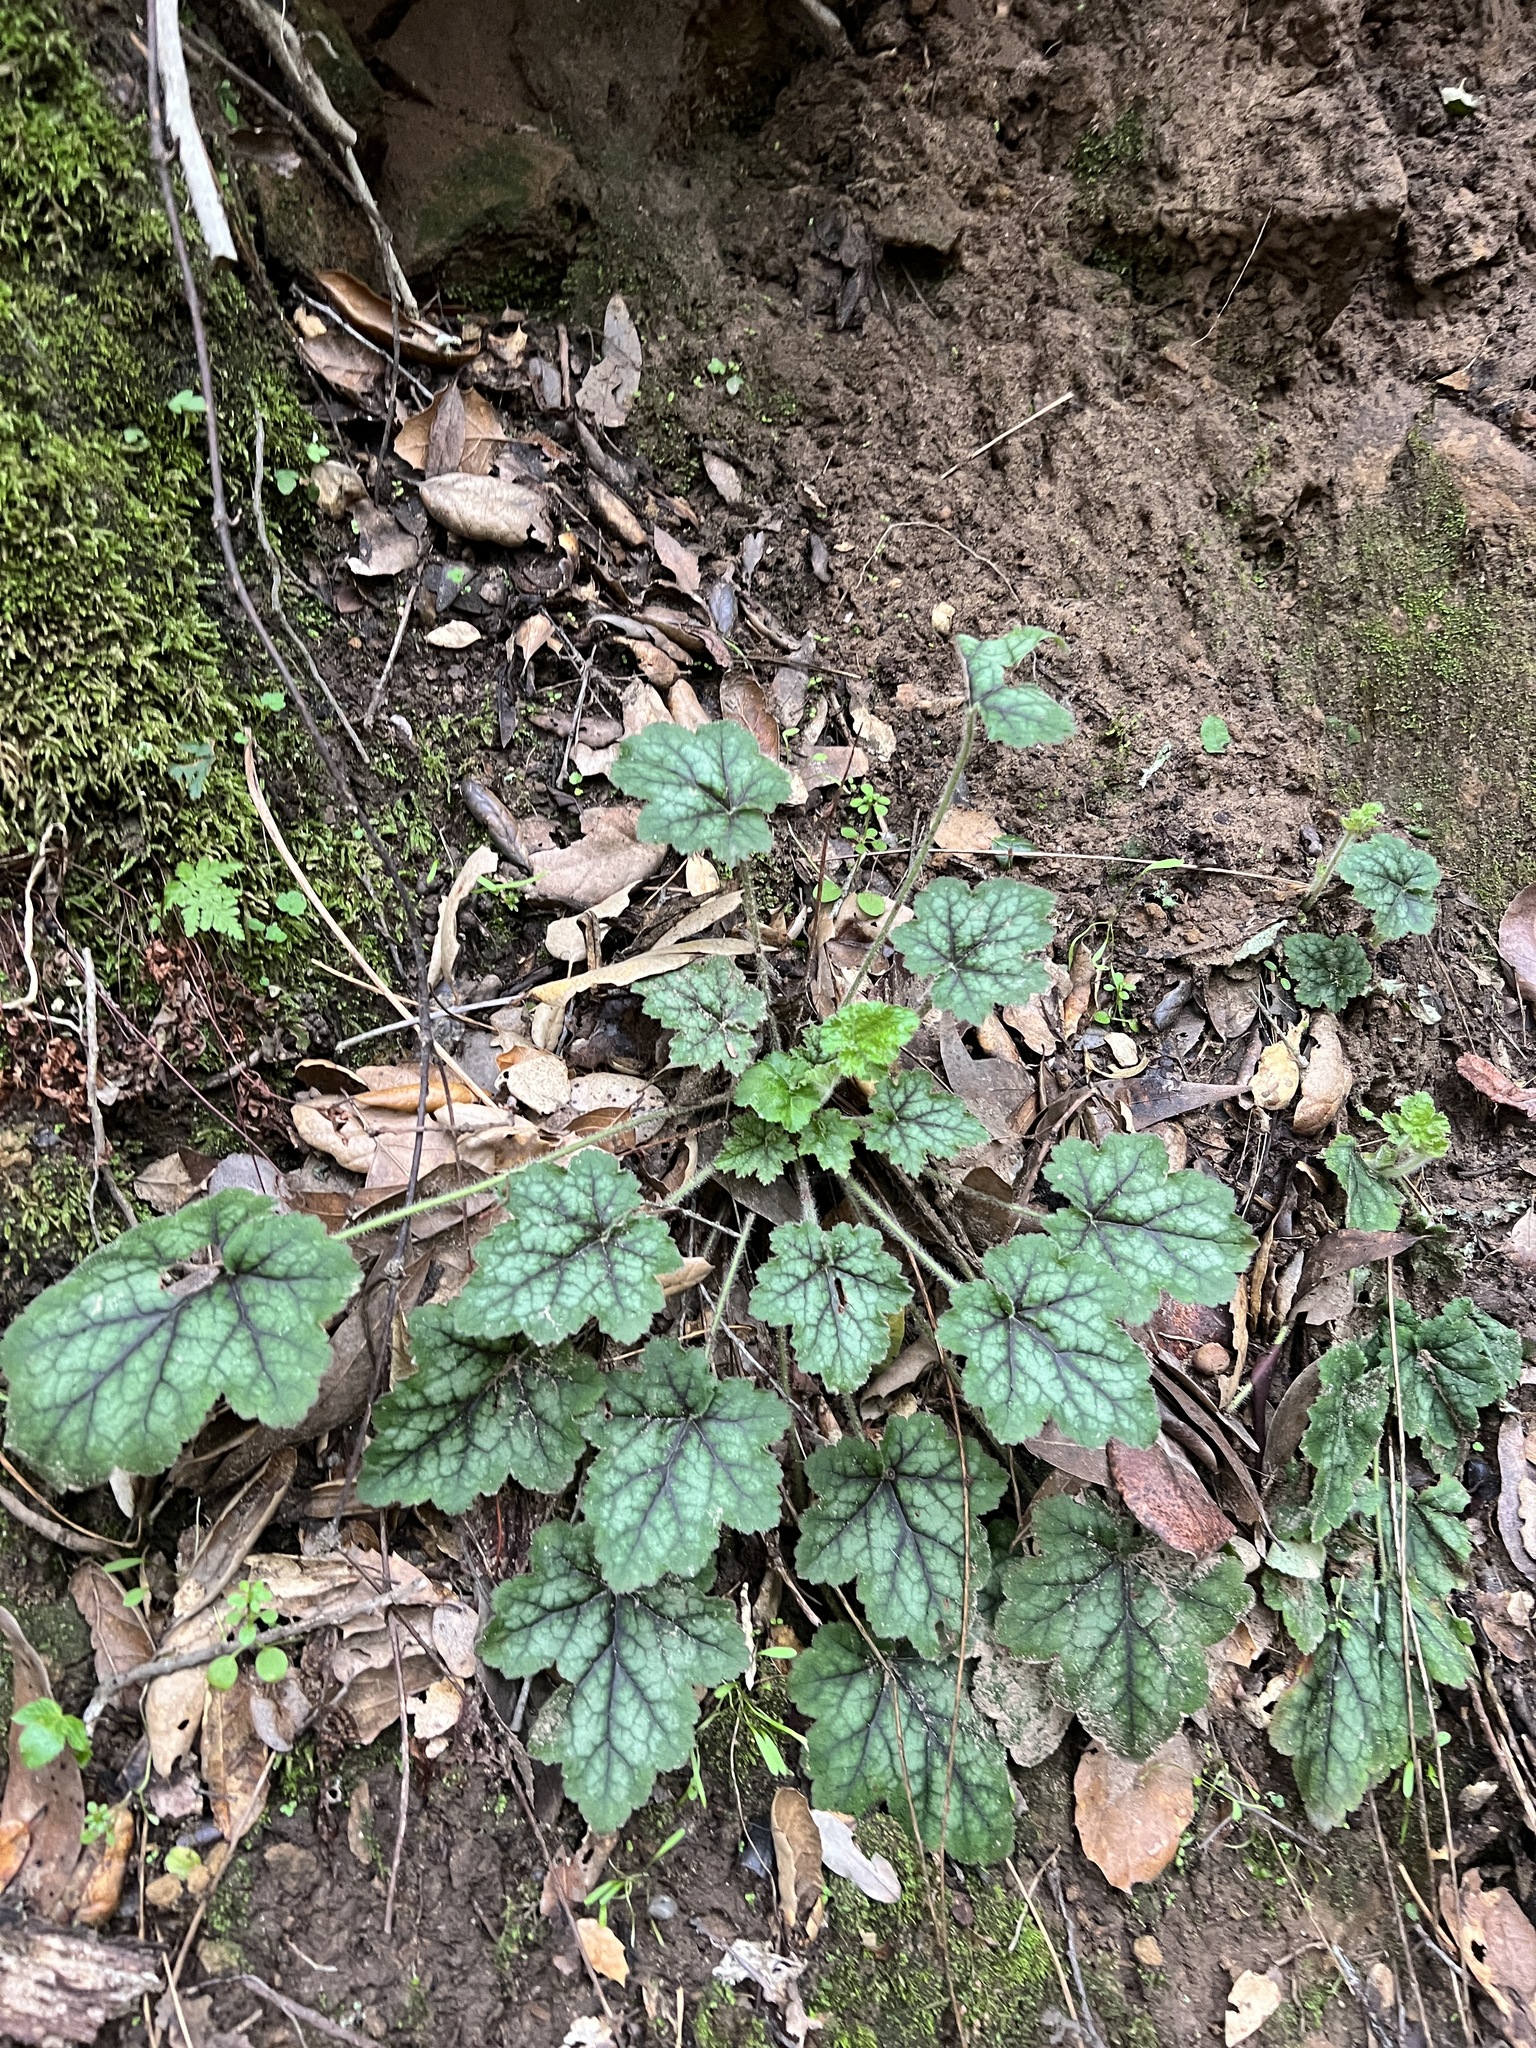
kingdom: Plantae
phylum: Tracheophyta
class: Magnoliopsida
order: Saxifragales
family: Saxifragaceae
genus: Heuchera
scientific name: Heuchera micrantha
